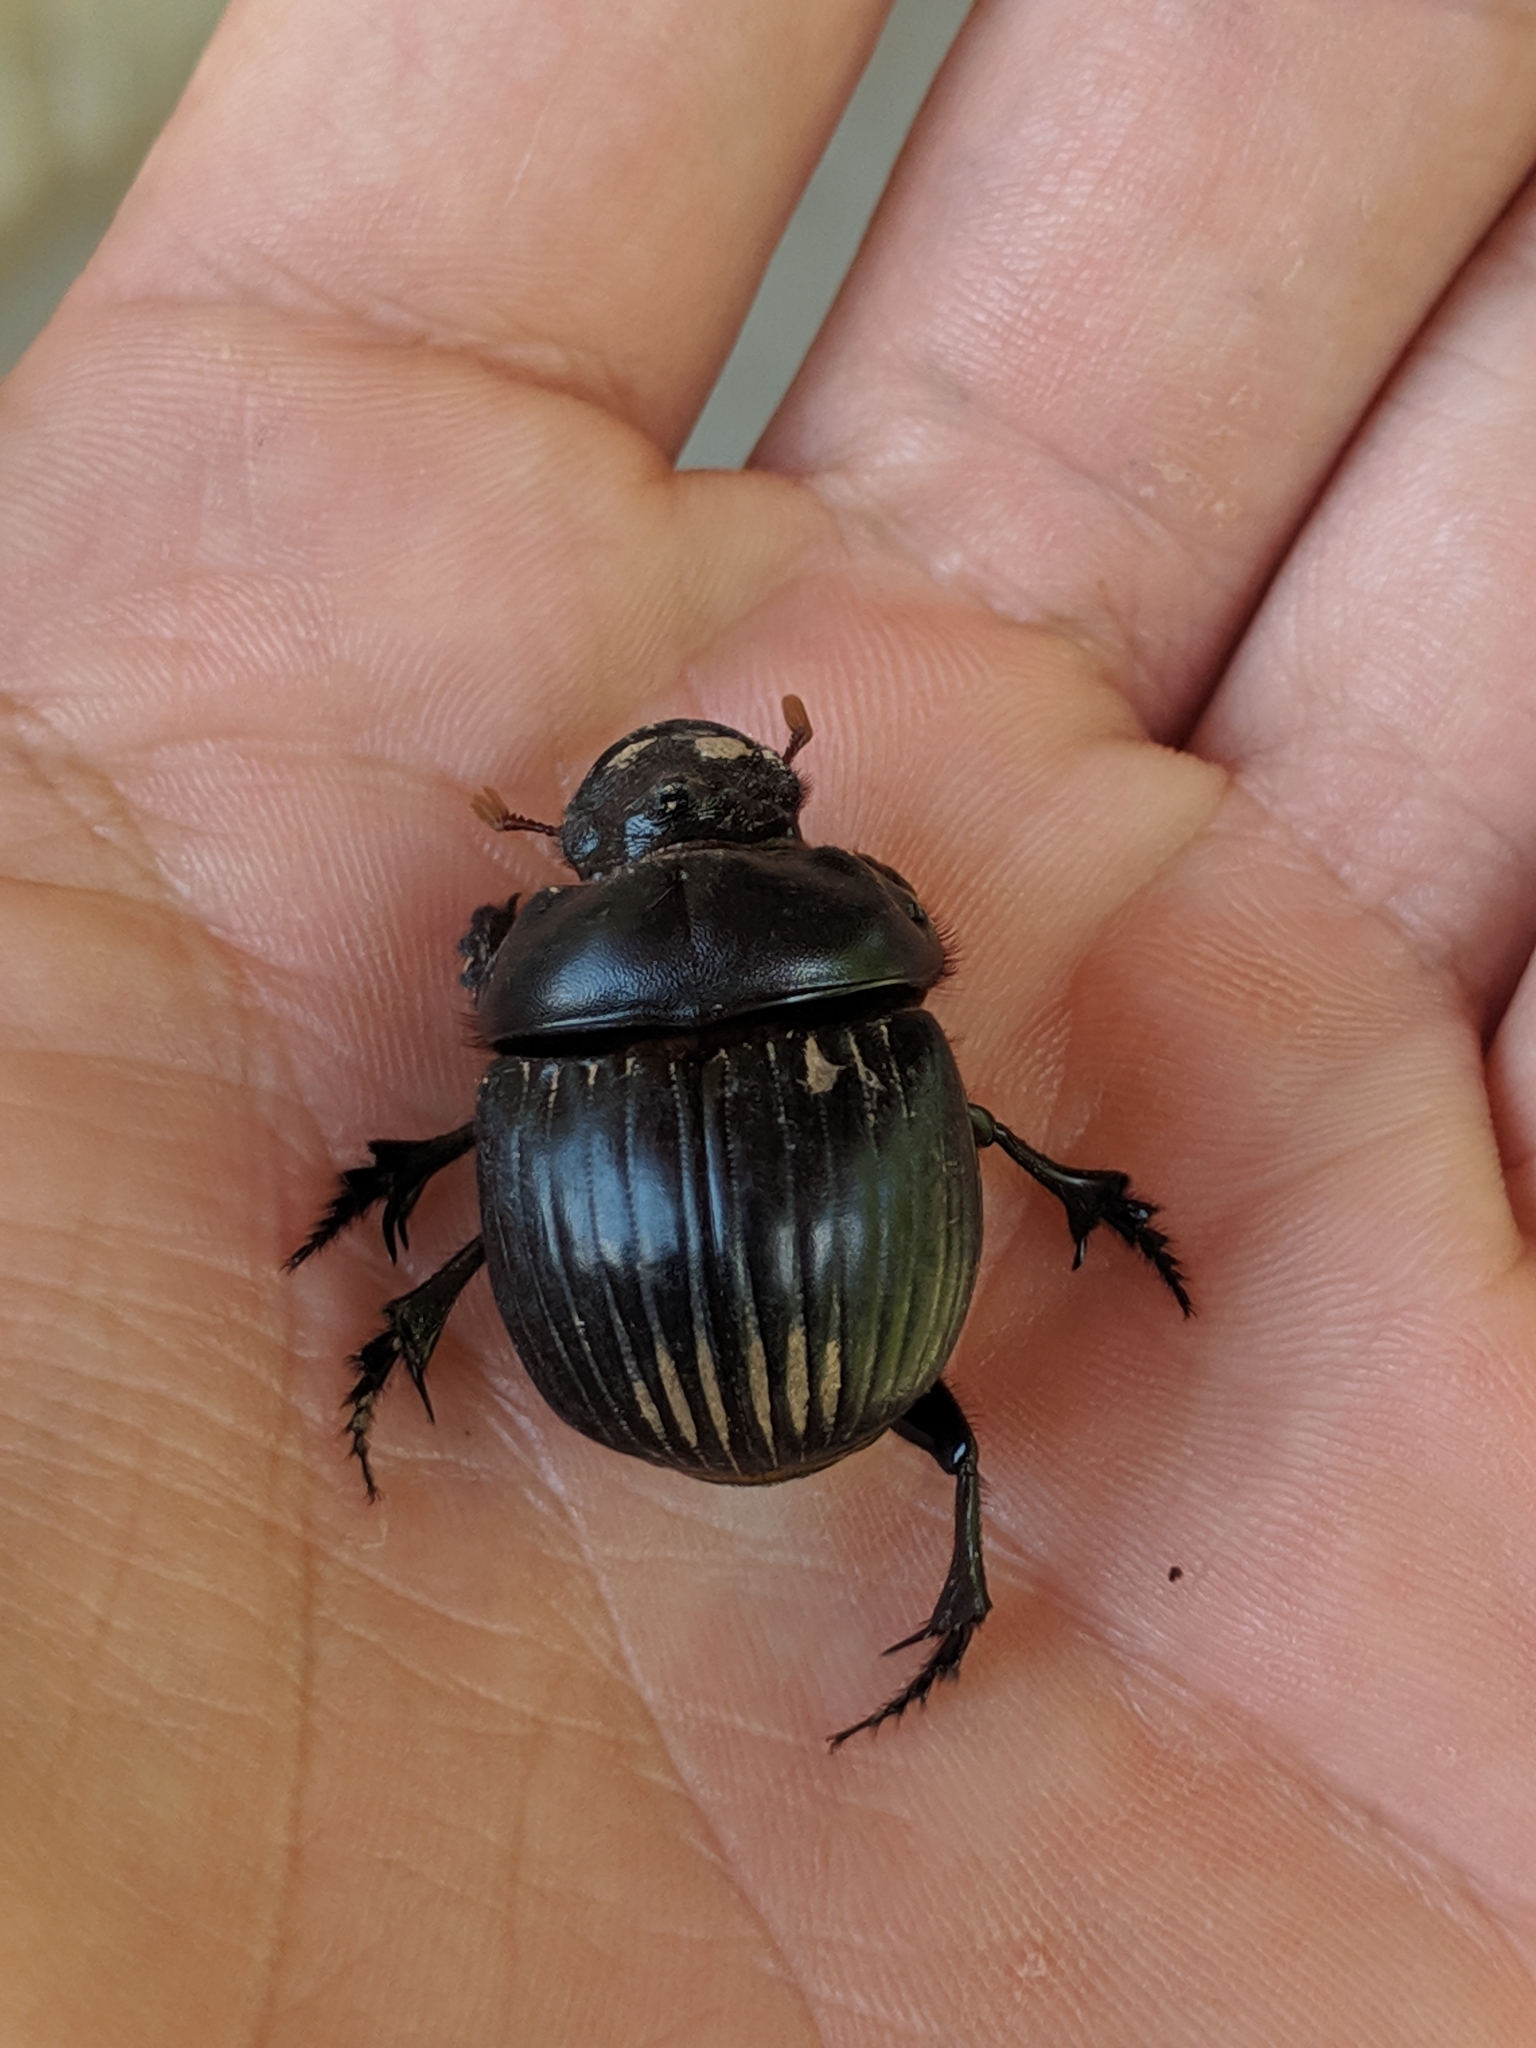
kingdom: Animalia
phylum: Arthropoda
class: Insecta
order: Coleoptera
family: Scarabaeidae
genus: Dichotomius
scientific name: Dichotomius carolinus
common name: Carolina copris
